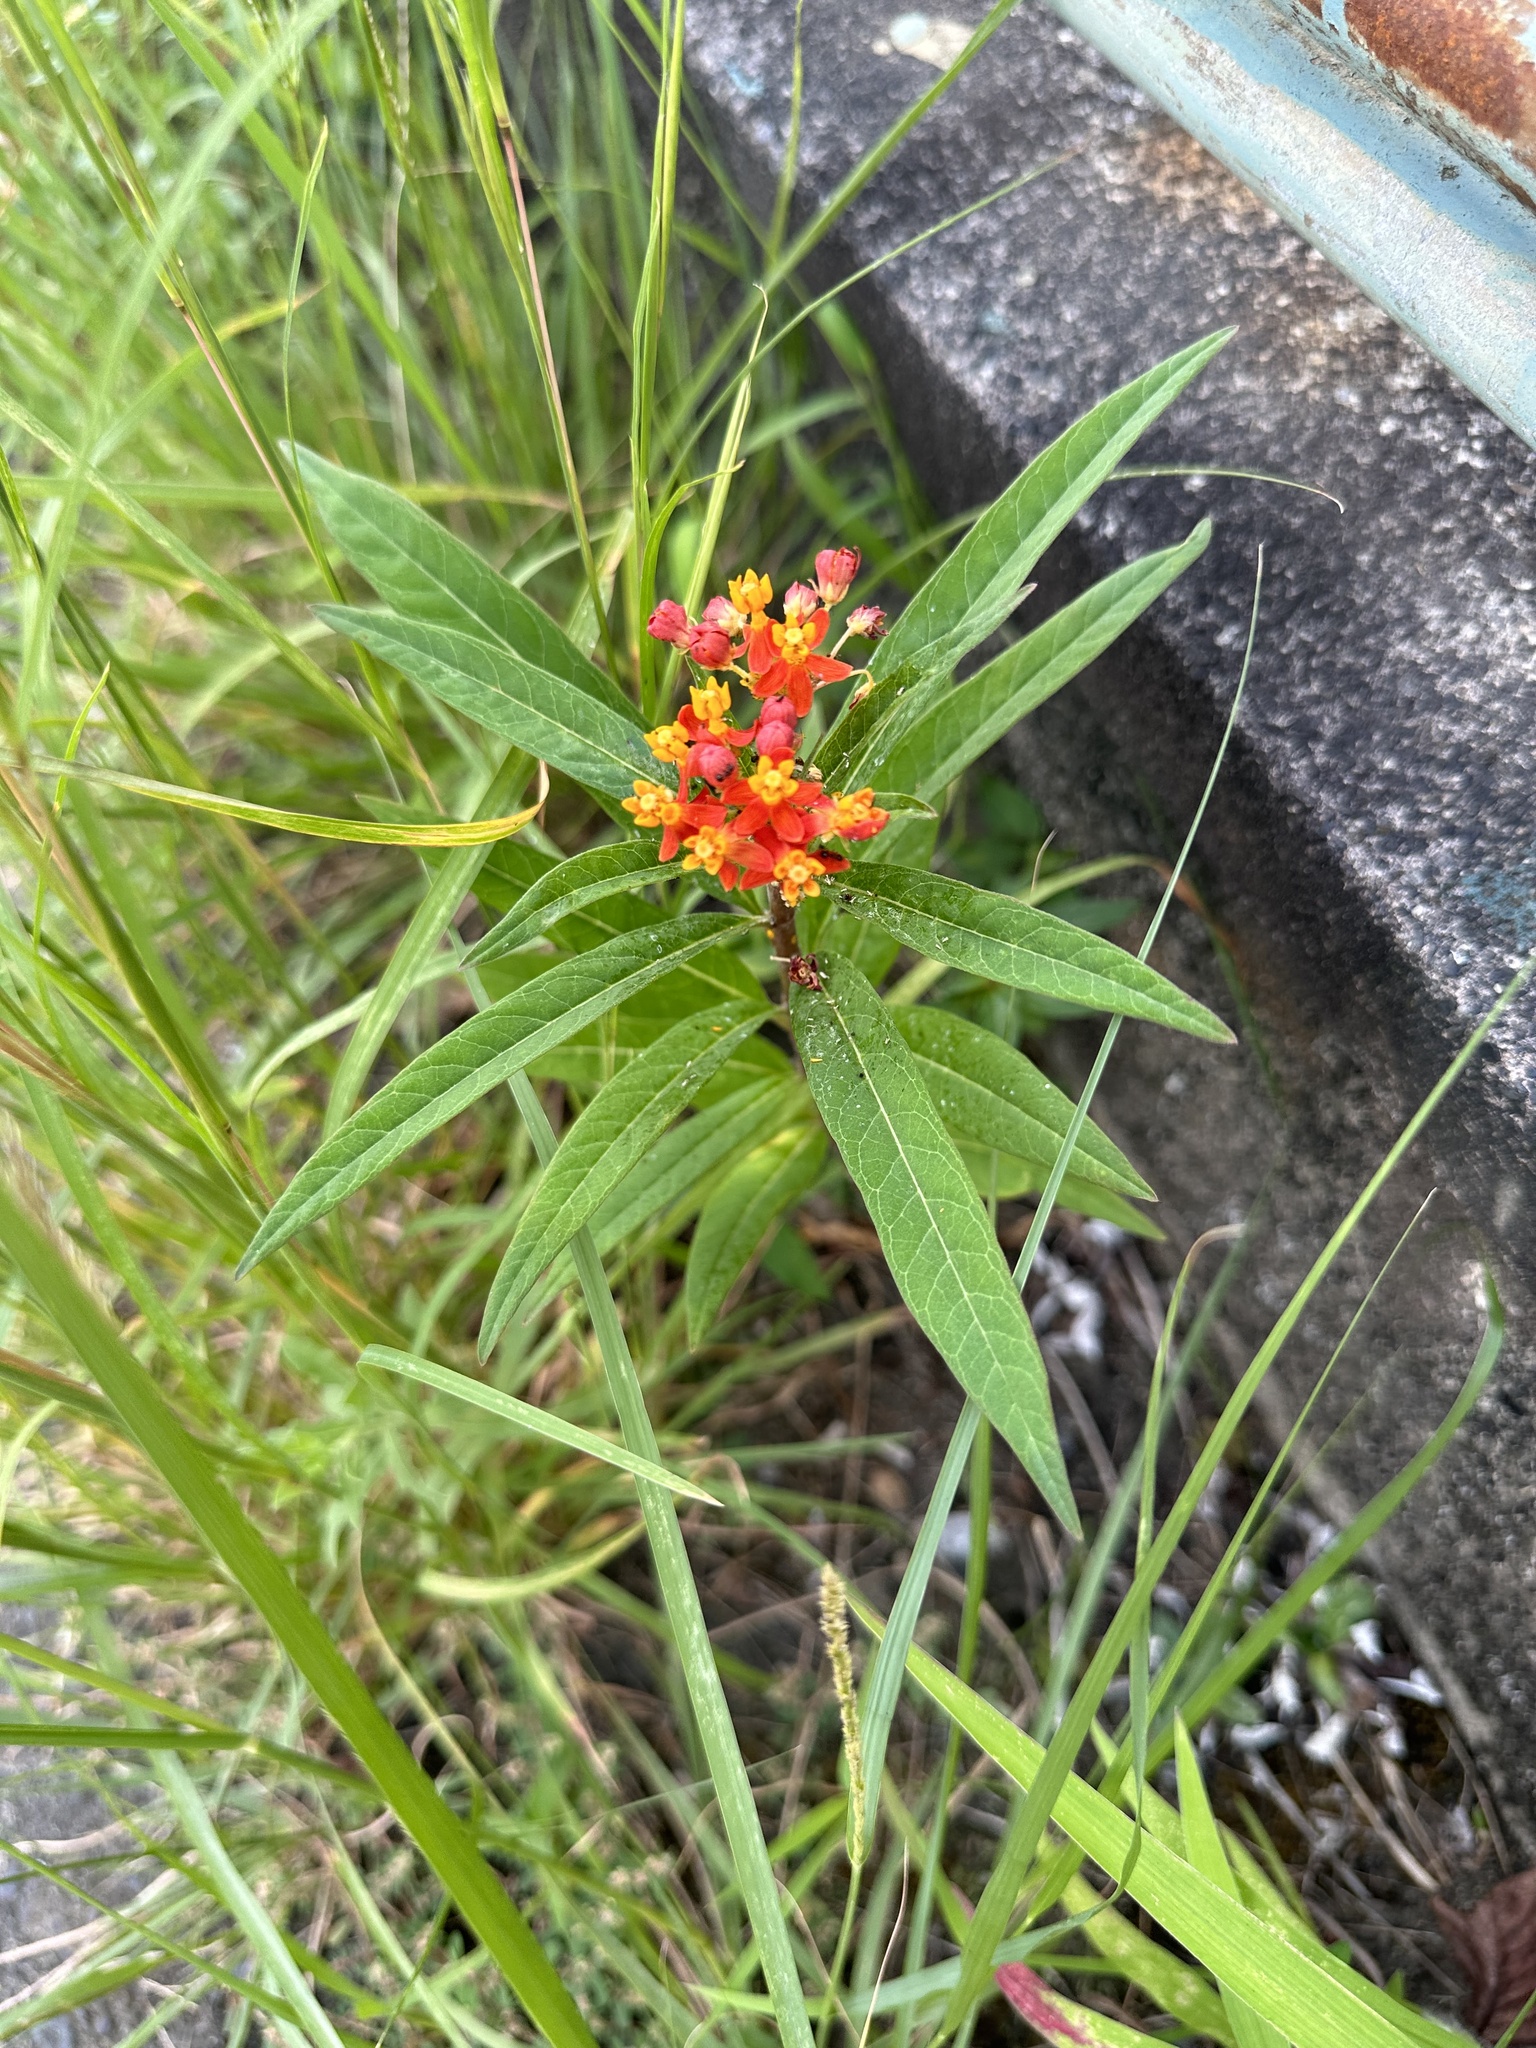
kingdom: Plantae
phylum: Tracheophyta
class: Magnoliopsida
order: Gentianales
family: Apocynaceae
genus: Asclepias
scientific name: Asclepias curassavica
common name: Bloodflower
